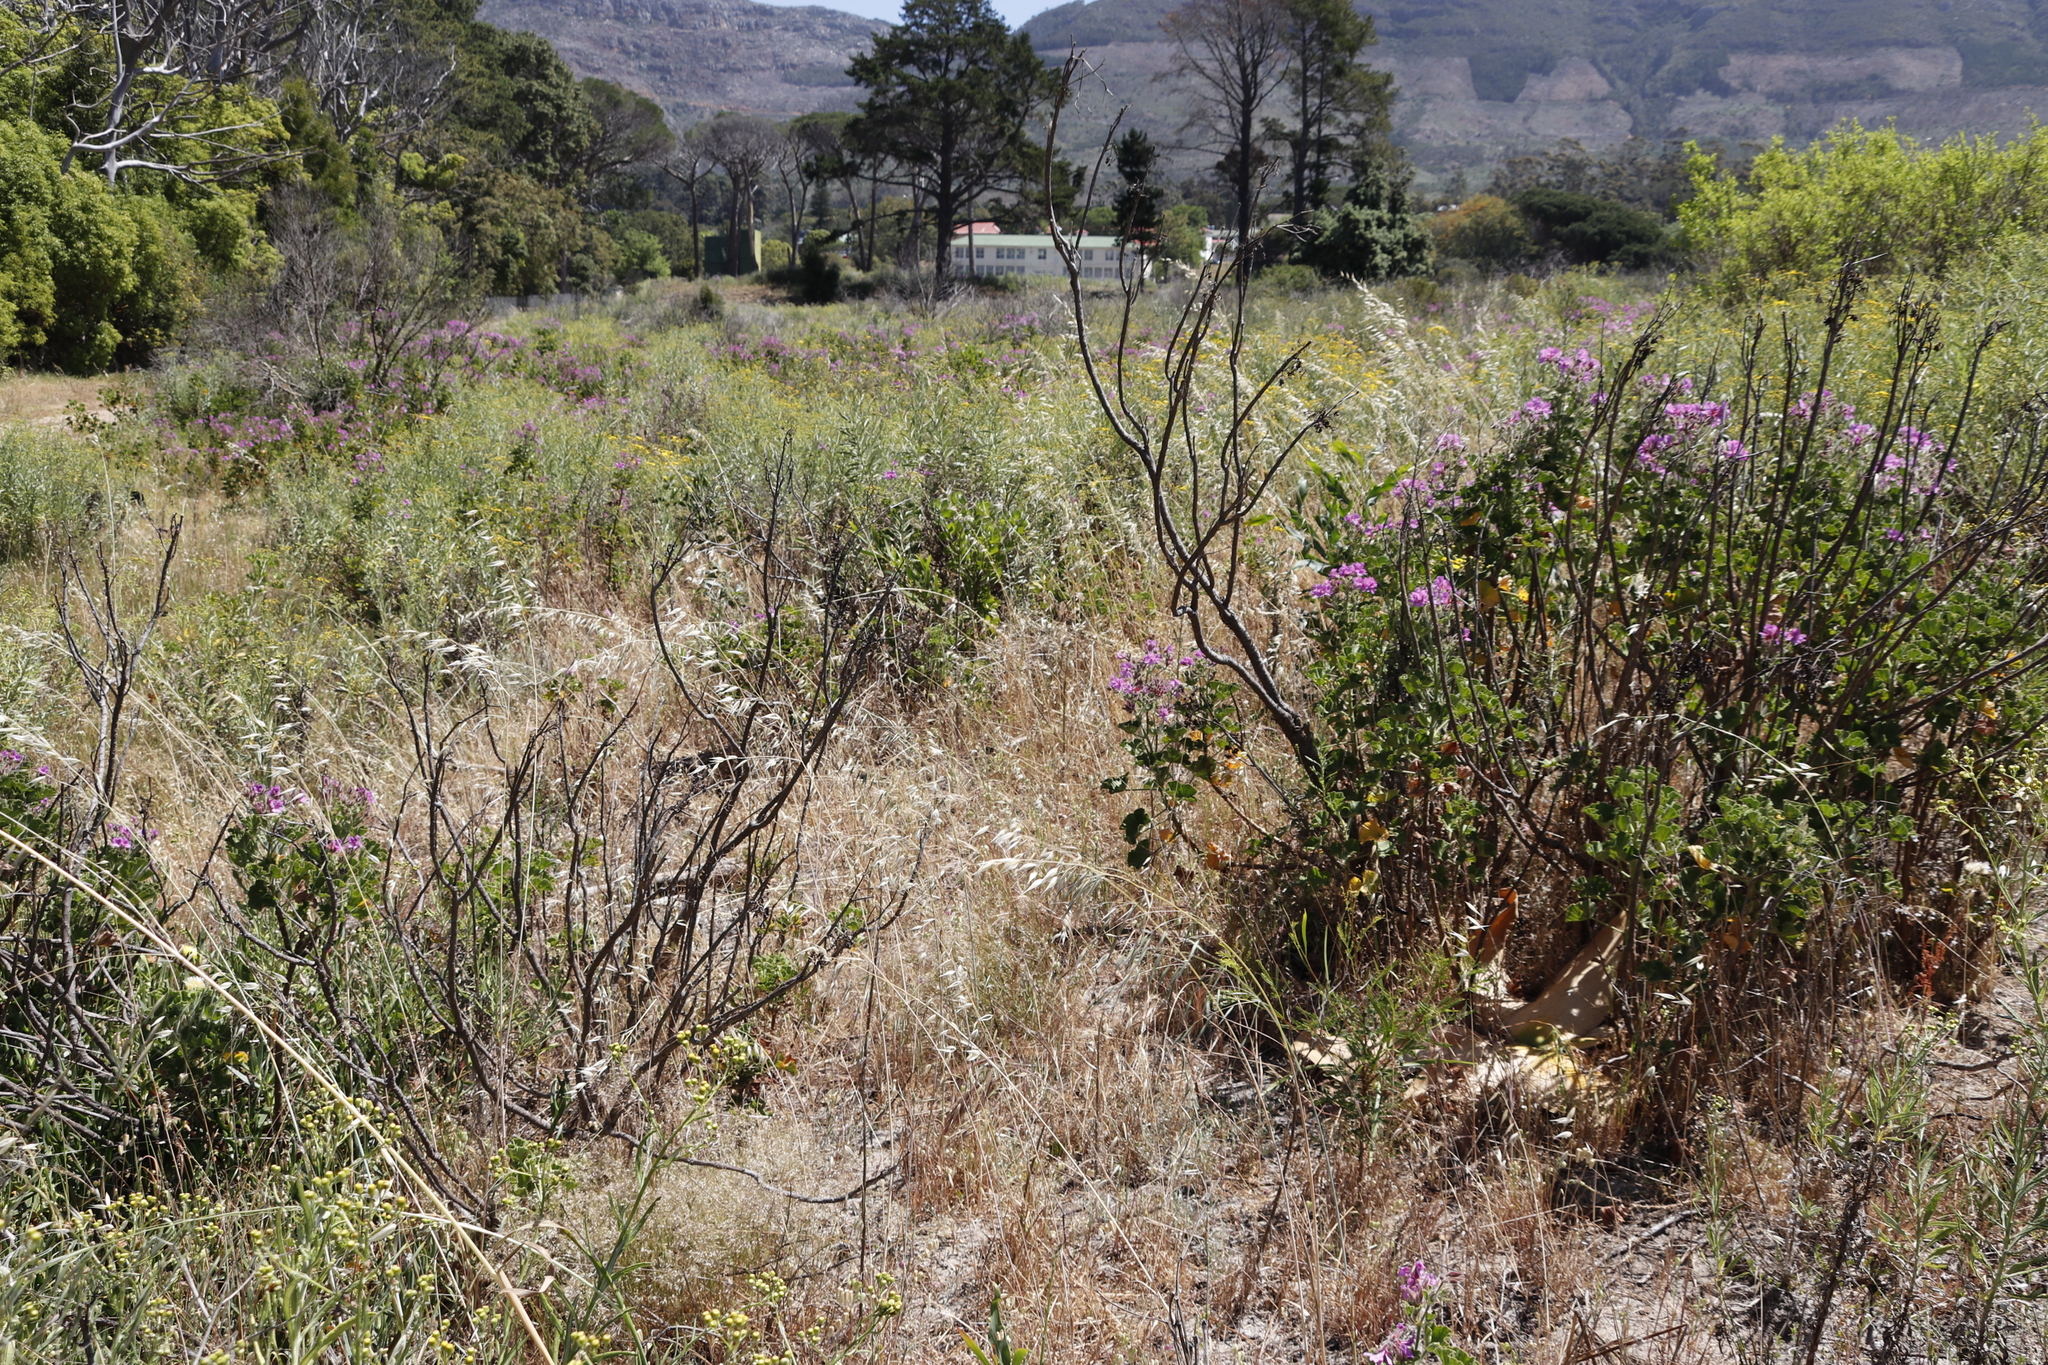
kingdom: Plantae
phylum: Tracheophyta
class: Magnoliopsida
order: Geraniales
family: Geraniaceae
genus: Pelargonium
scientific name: Pelargonium cucullatum
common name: Tree pelargonium
